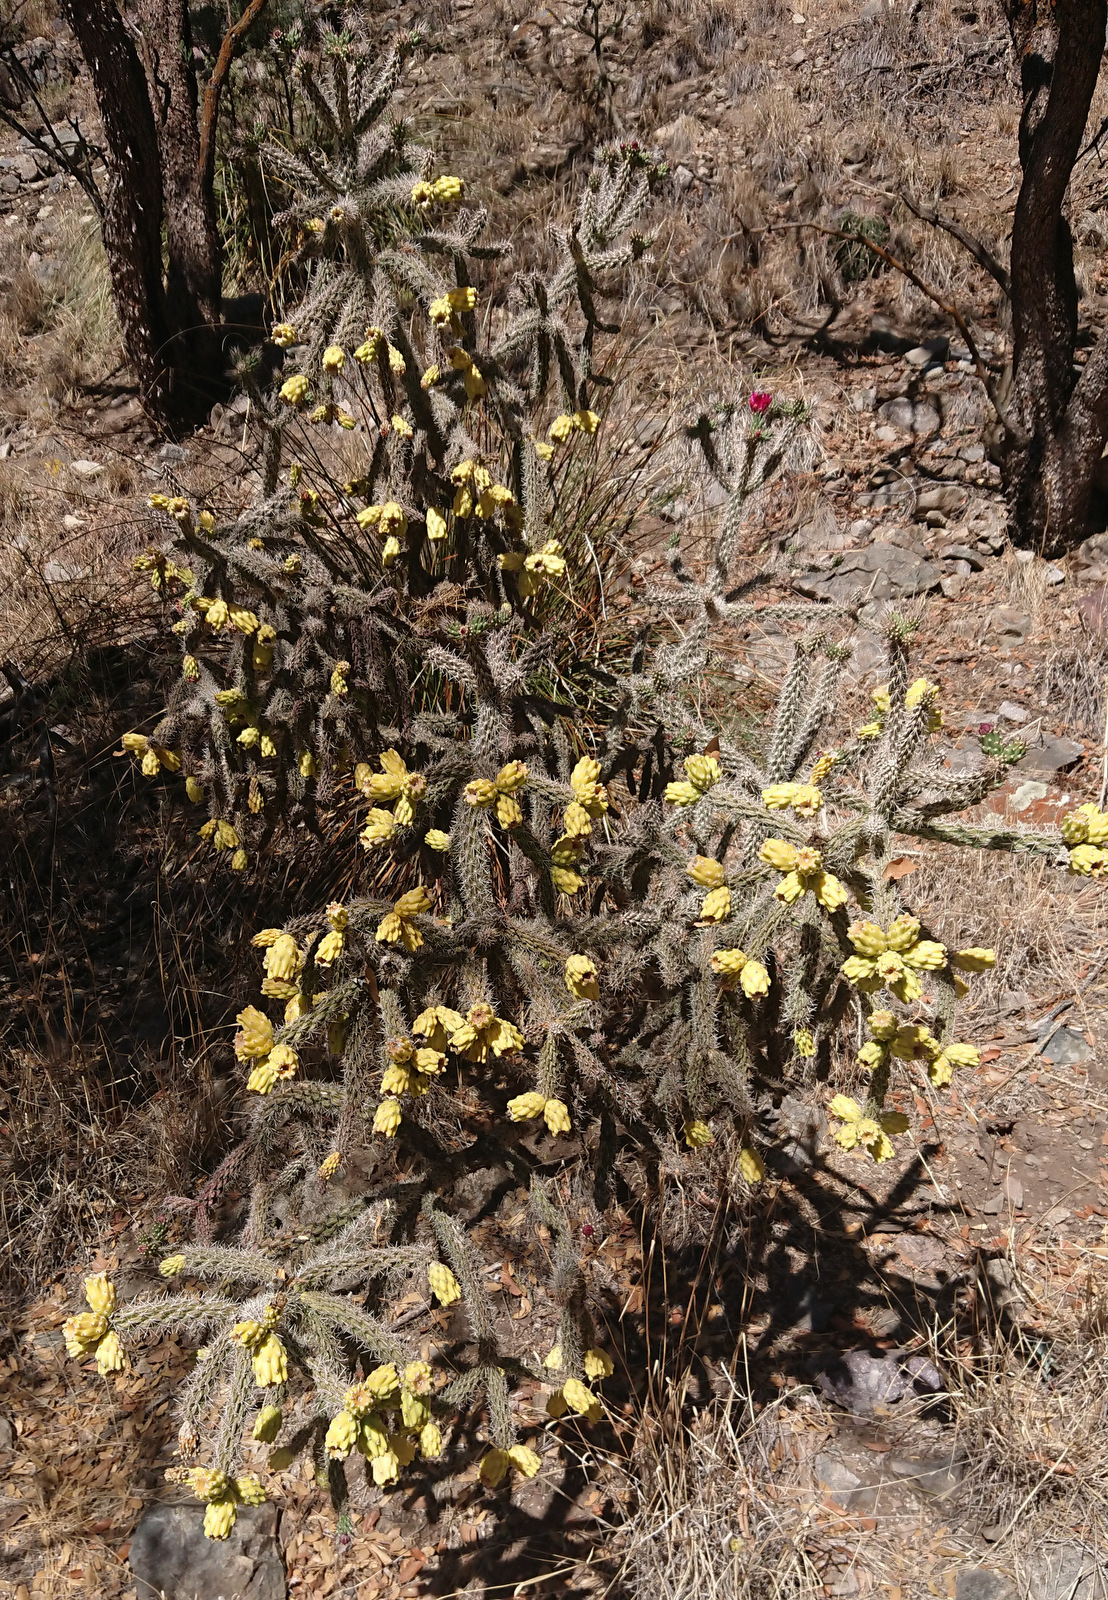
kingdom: Plantae
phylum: Tracheophyta
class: Magnoliopsida
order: Caryophyllales
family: Cactaceae
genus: Cylindropuntia
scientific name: Cylindropuntia imbricata
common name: Candelabrum cactus
